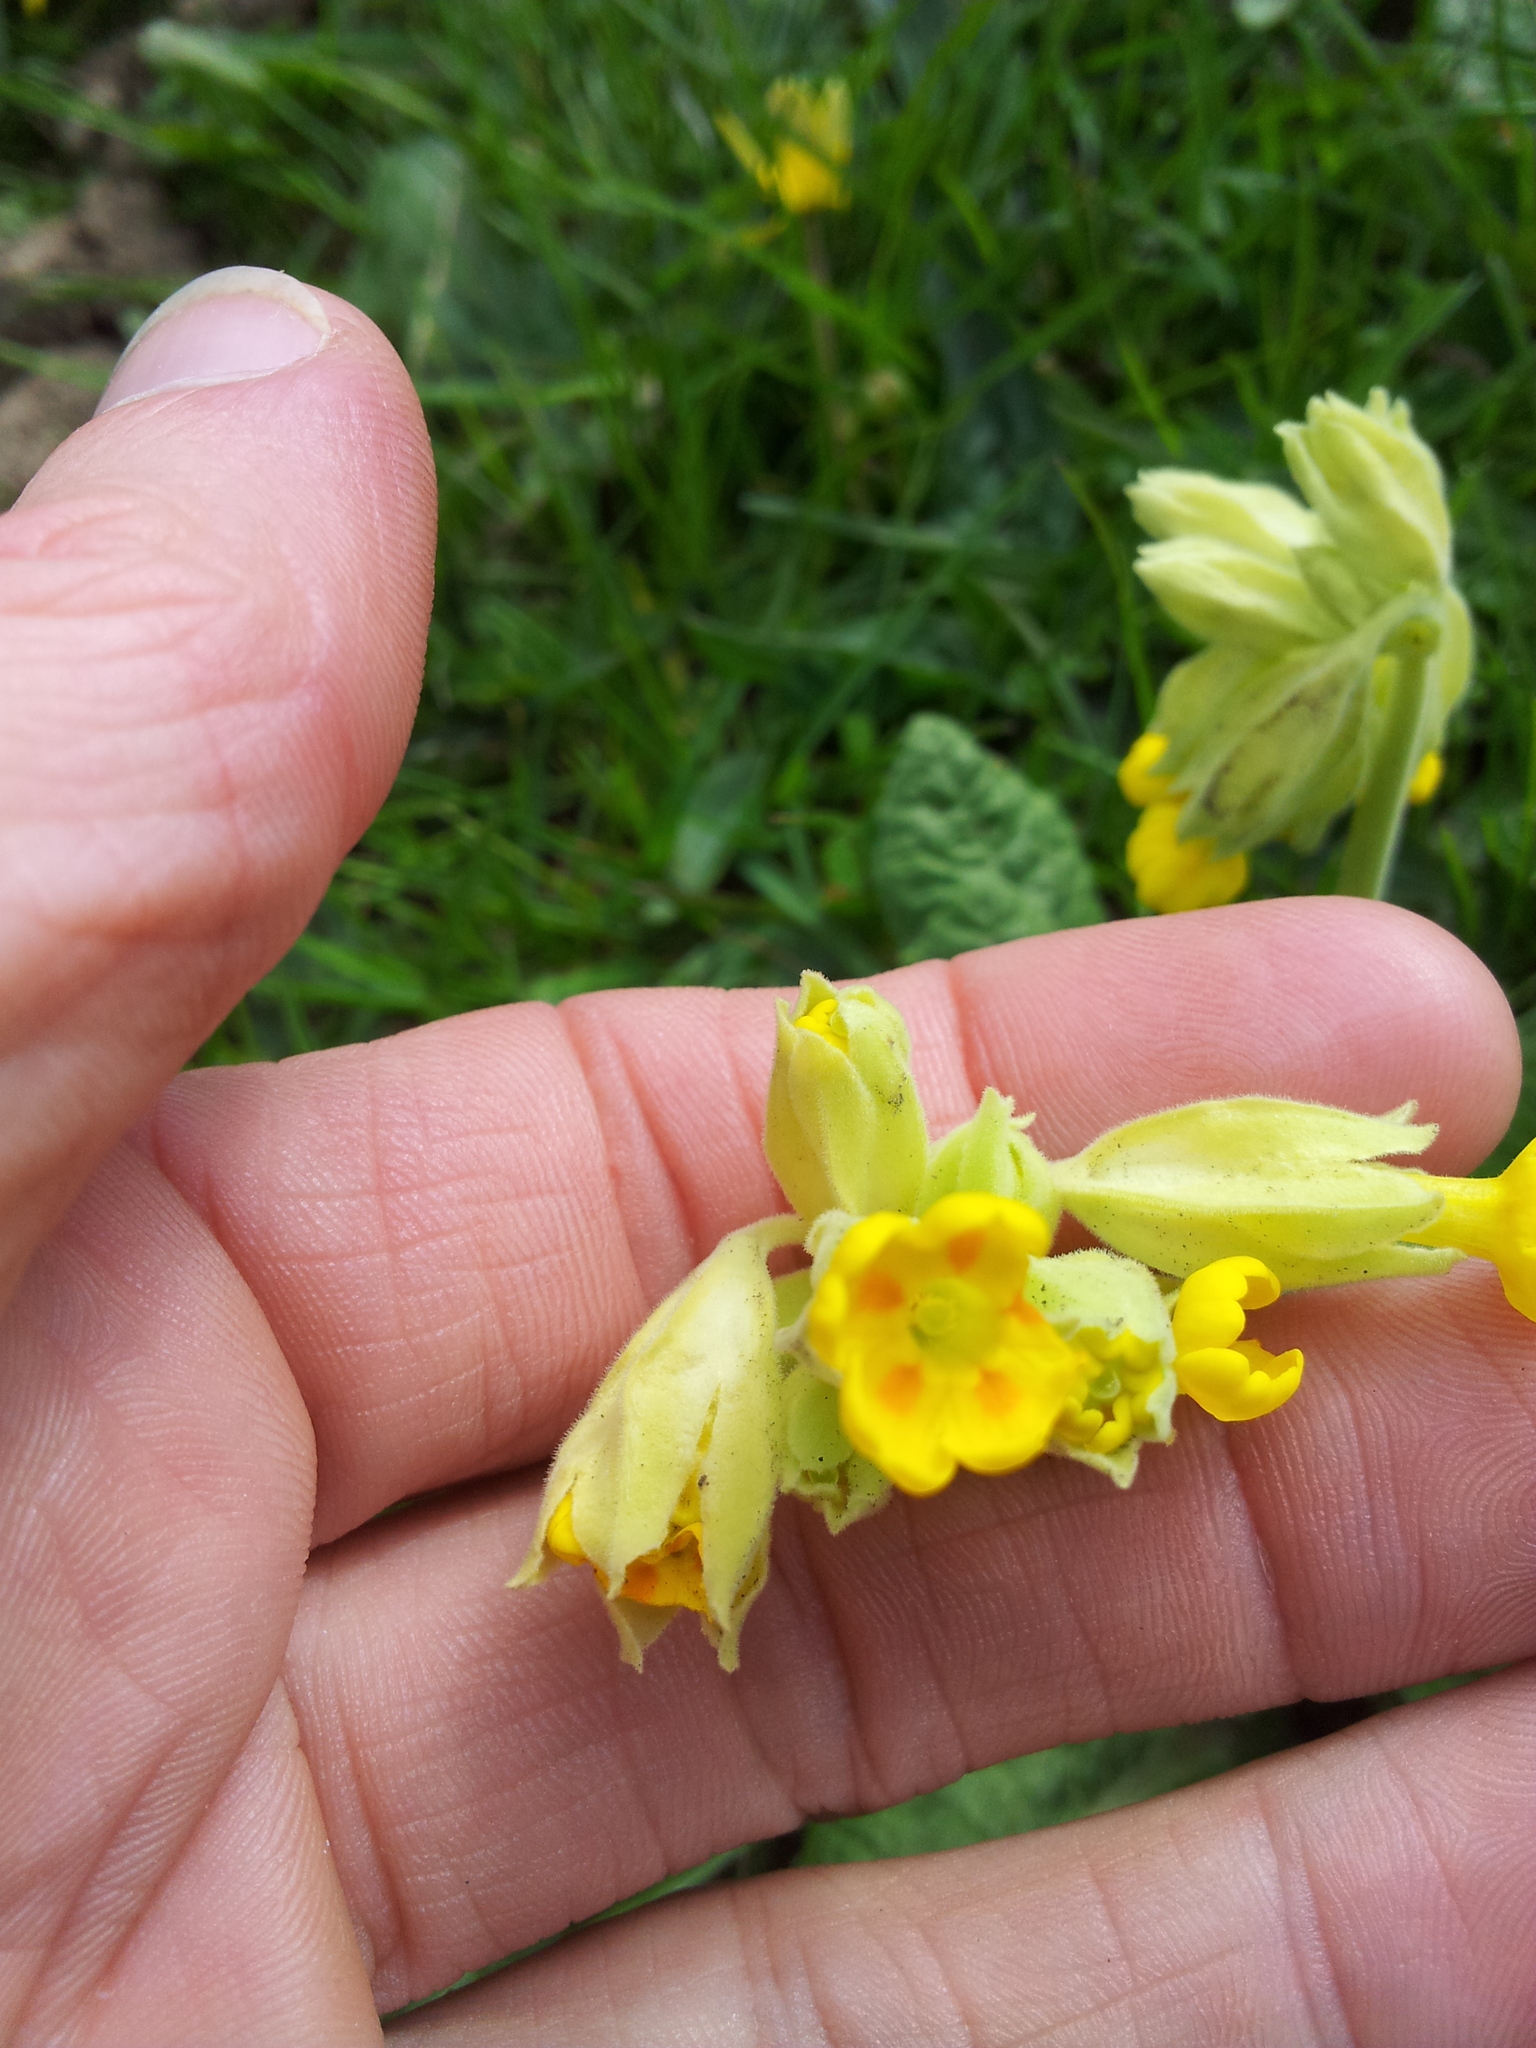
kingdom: Plantae
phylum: Tracheophyta
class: Magnoliopsida
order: Ericales
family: Primulaceae
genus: Primula
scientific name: Primula veris
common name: Cowslip
